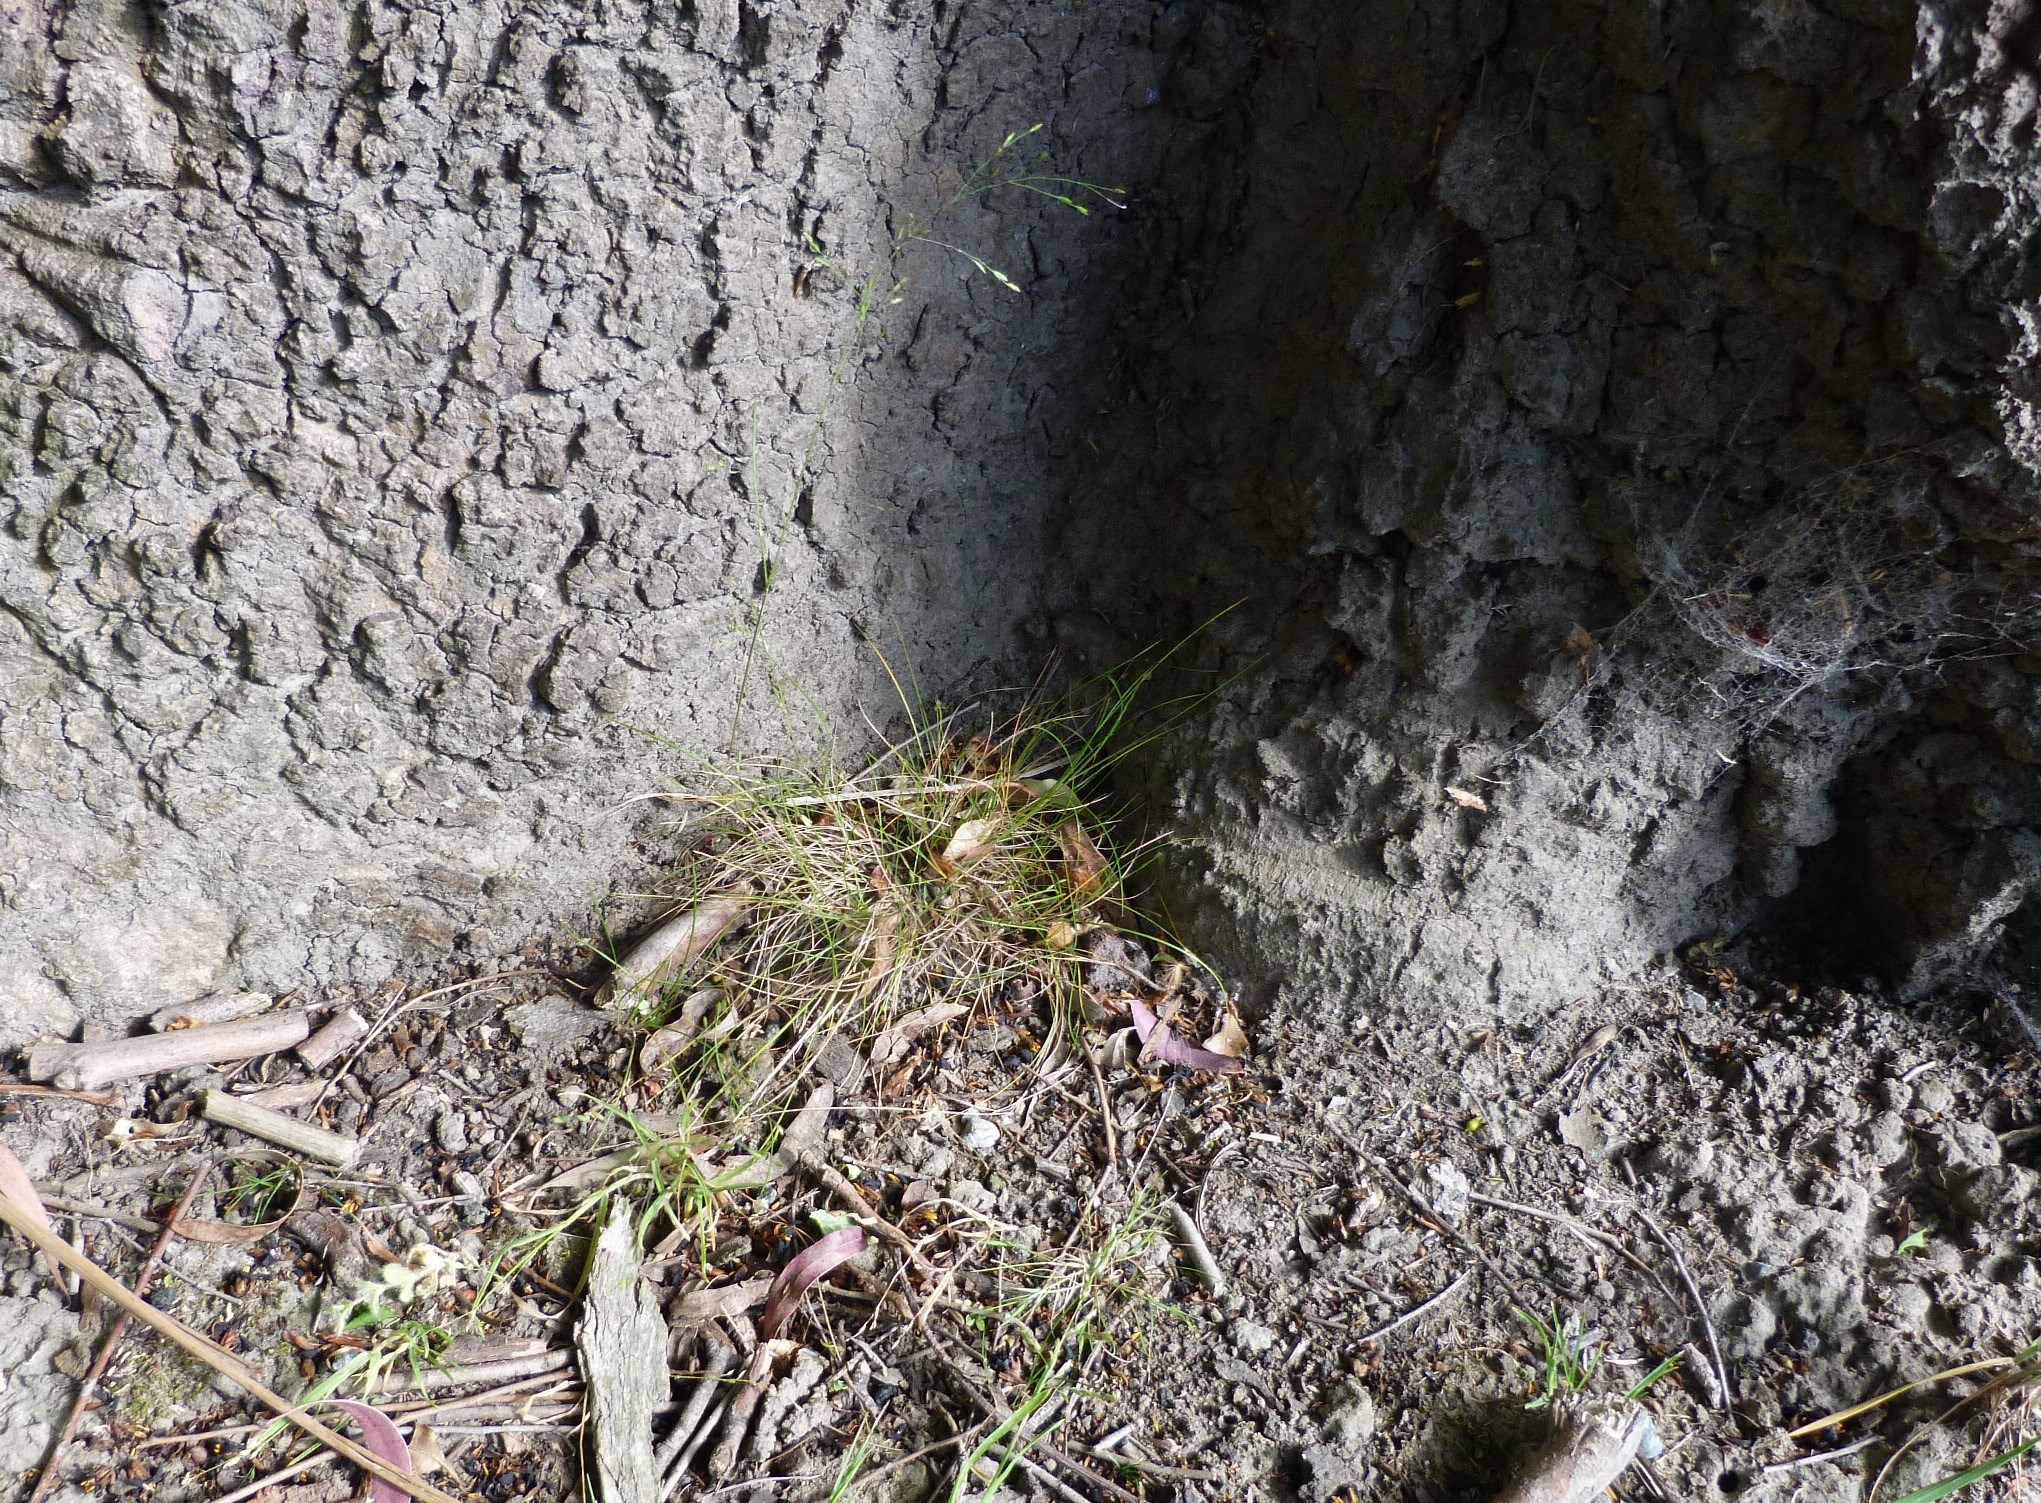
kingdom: Plantae
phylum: Tracheophyta
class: Liliopsida
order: Poales
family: Poaceae
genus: Poa
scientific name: Poa imbecilla
